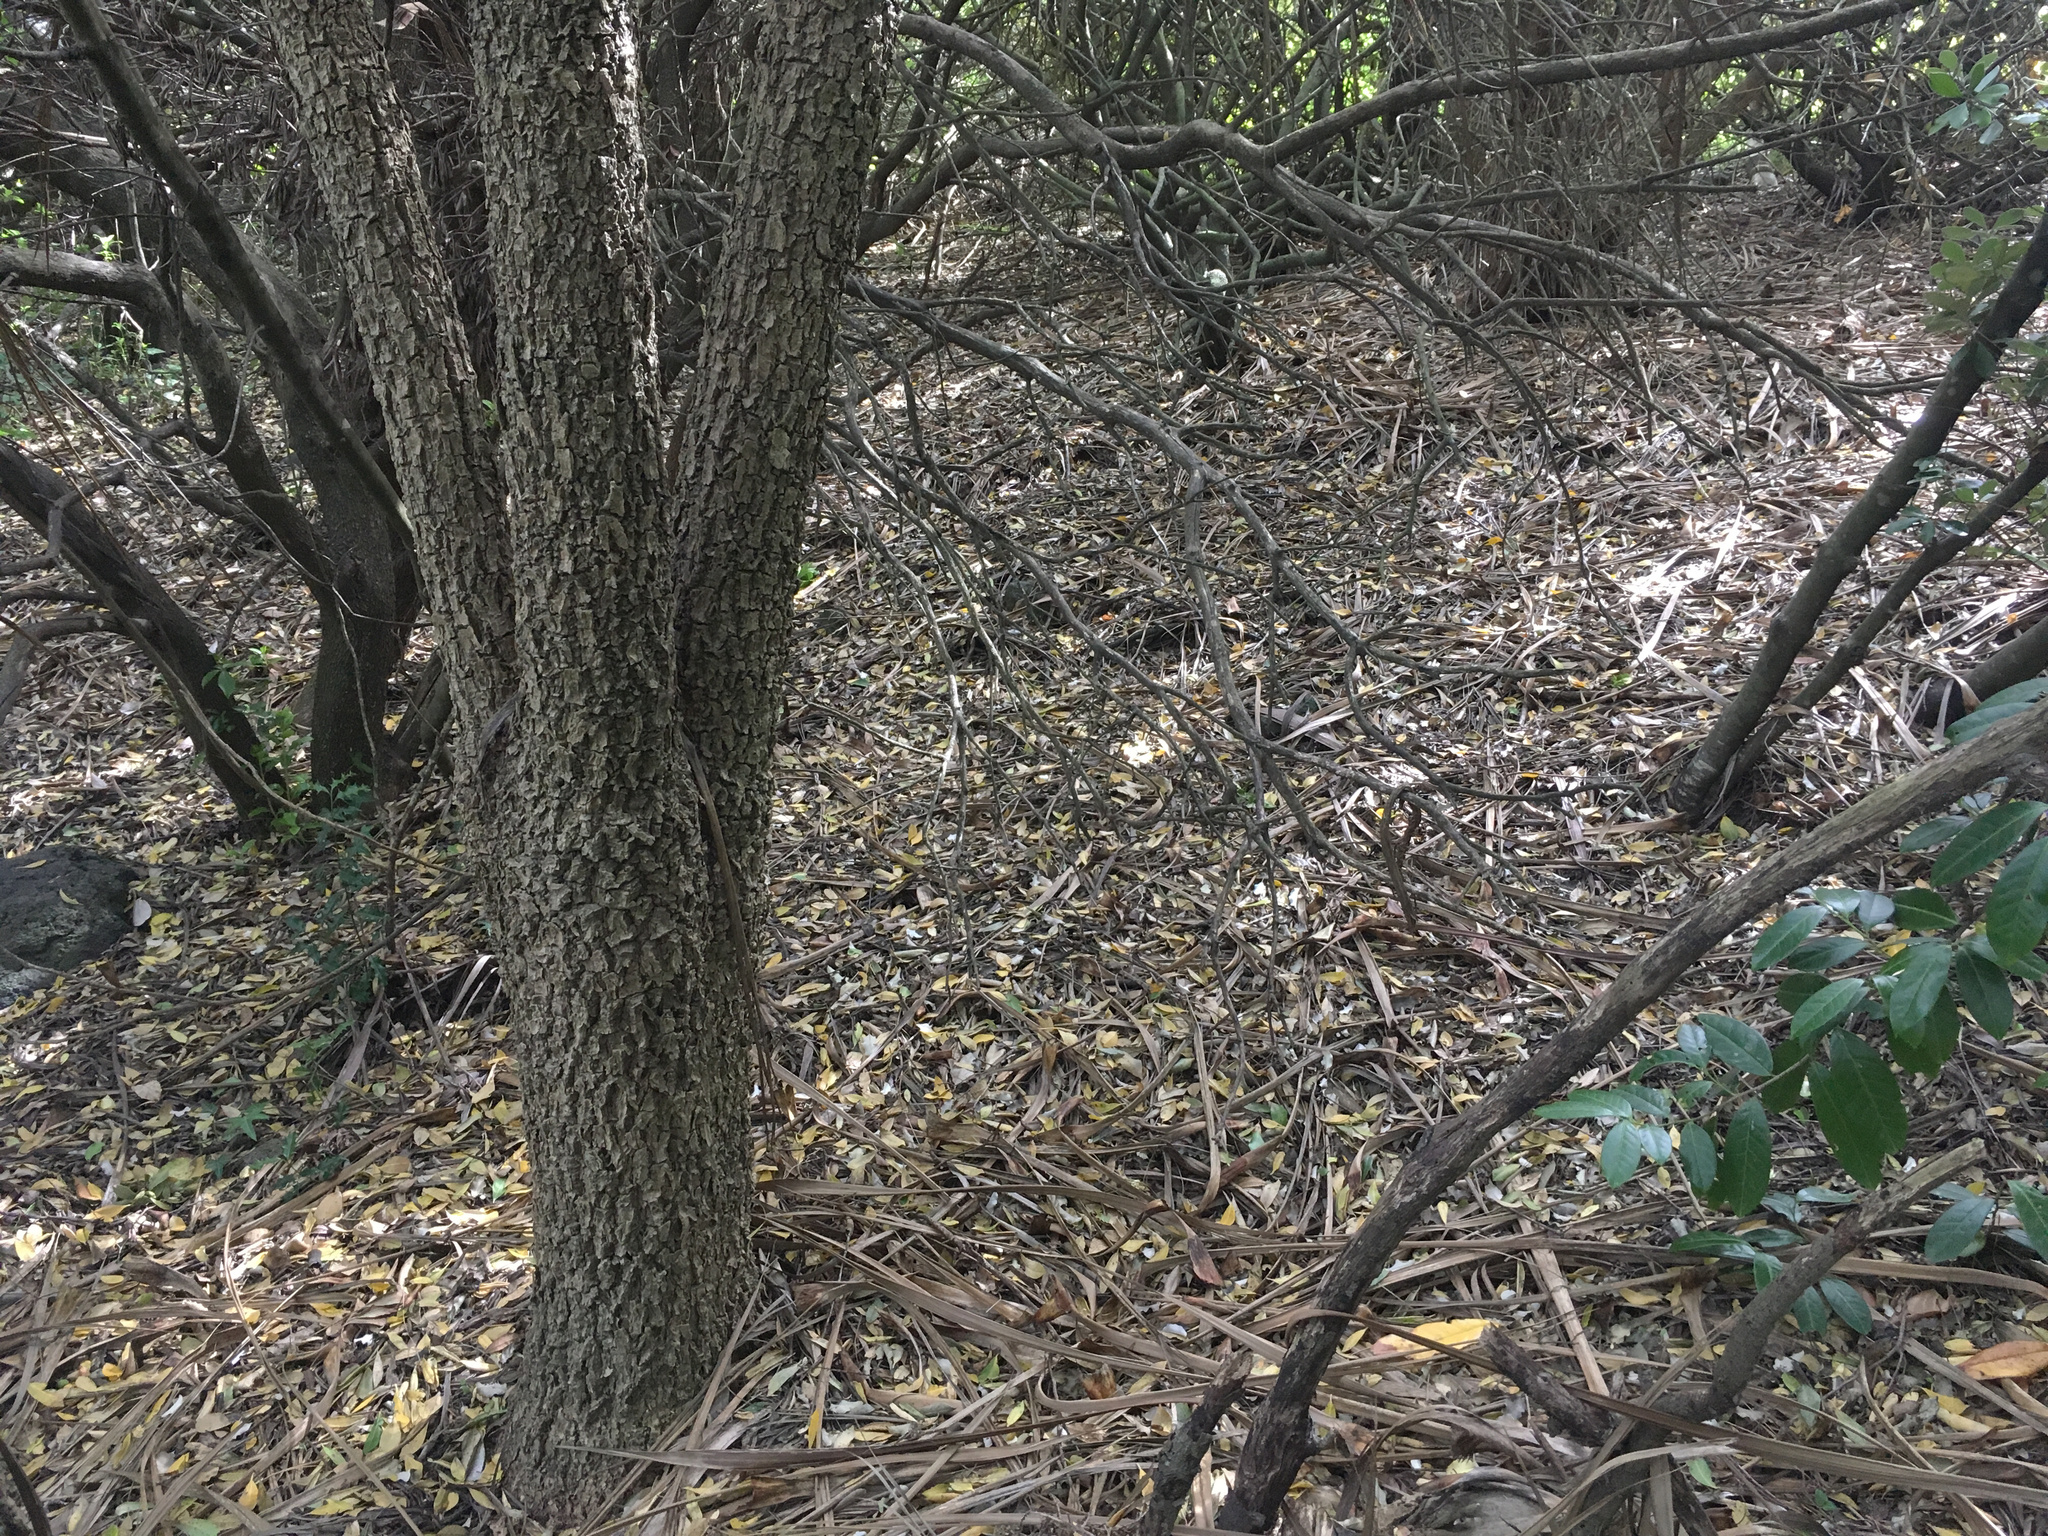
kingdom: Plantae
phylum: Tracheophyta
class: Magnoliopsida
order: Aquifoliales
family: Aquifoliaceae
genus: Ilex
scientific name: Ilex aquifolium
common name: English holly
